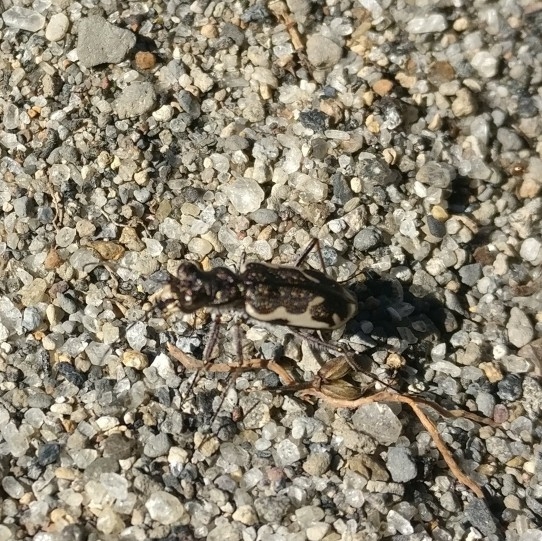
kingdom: Animalia
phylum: Arthropoda
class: Insecta
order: Coleoptera
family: Carabidae
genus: Neocicindela
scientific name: Neocicindela tuberculata
